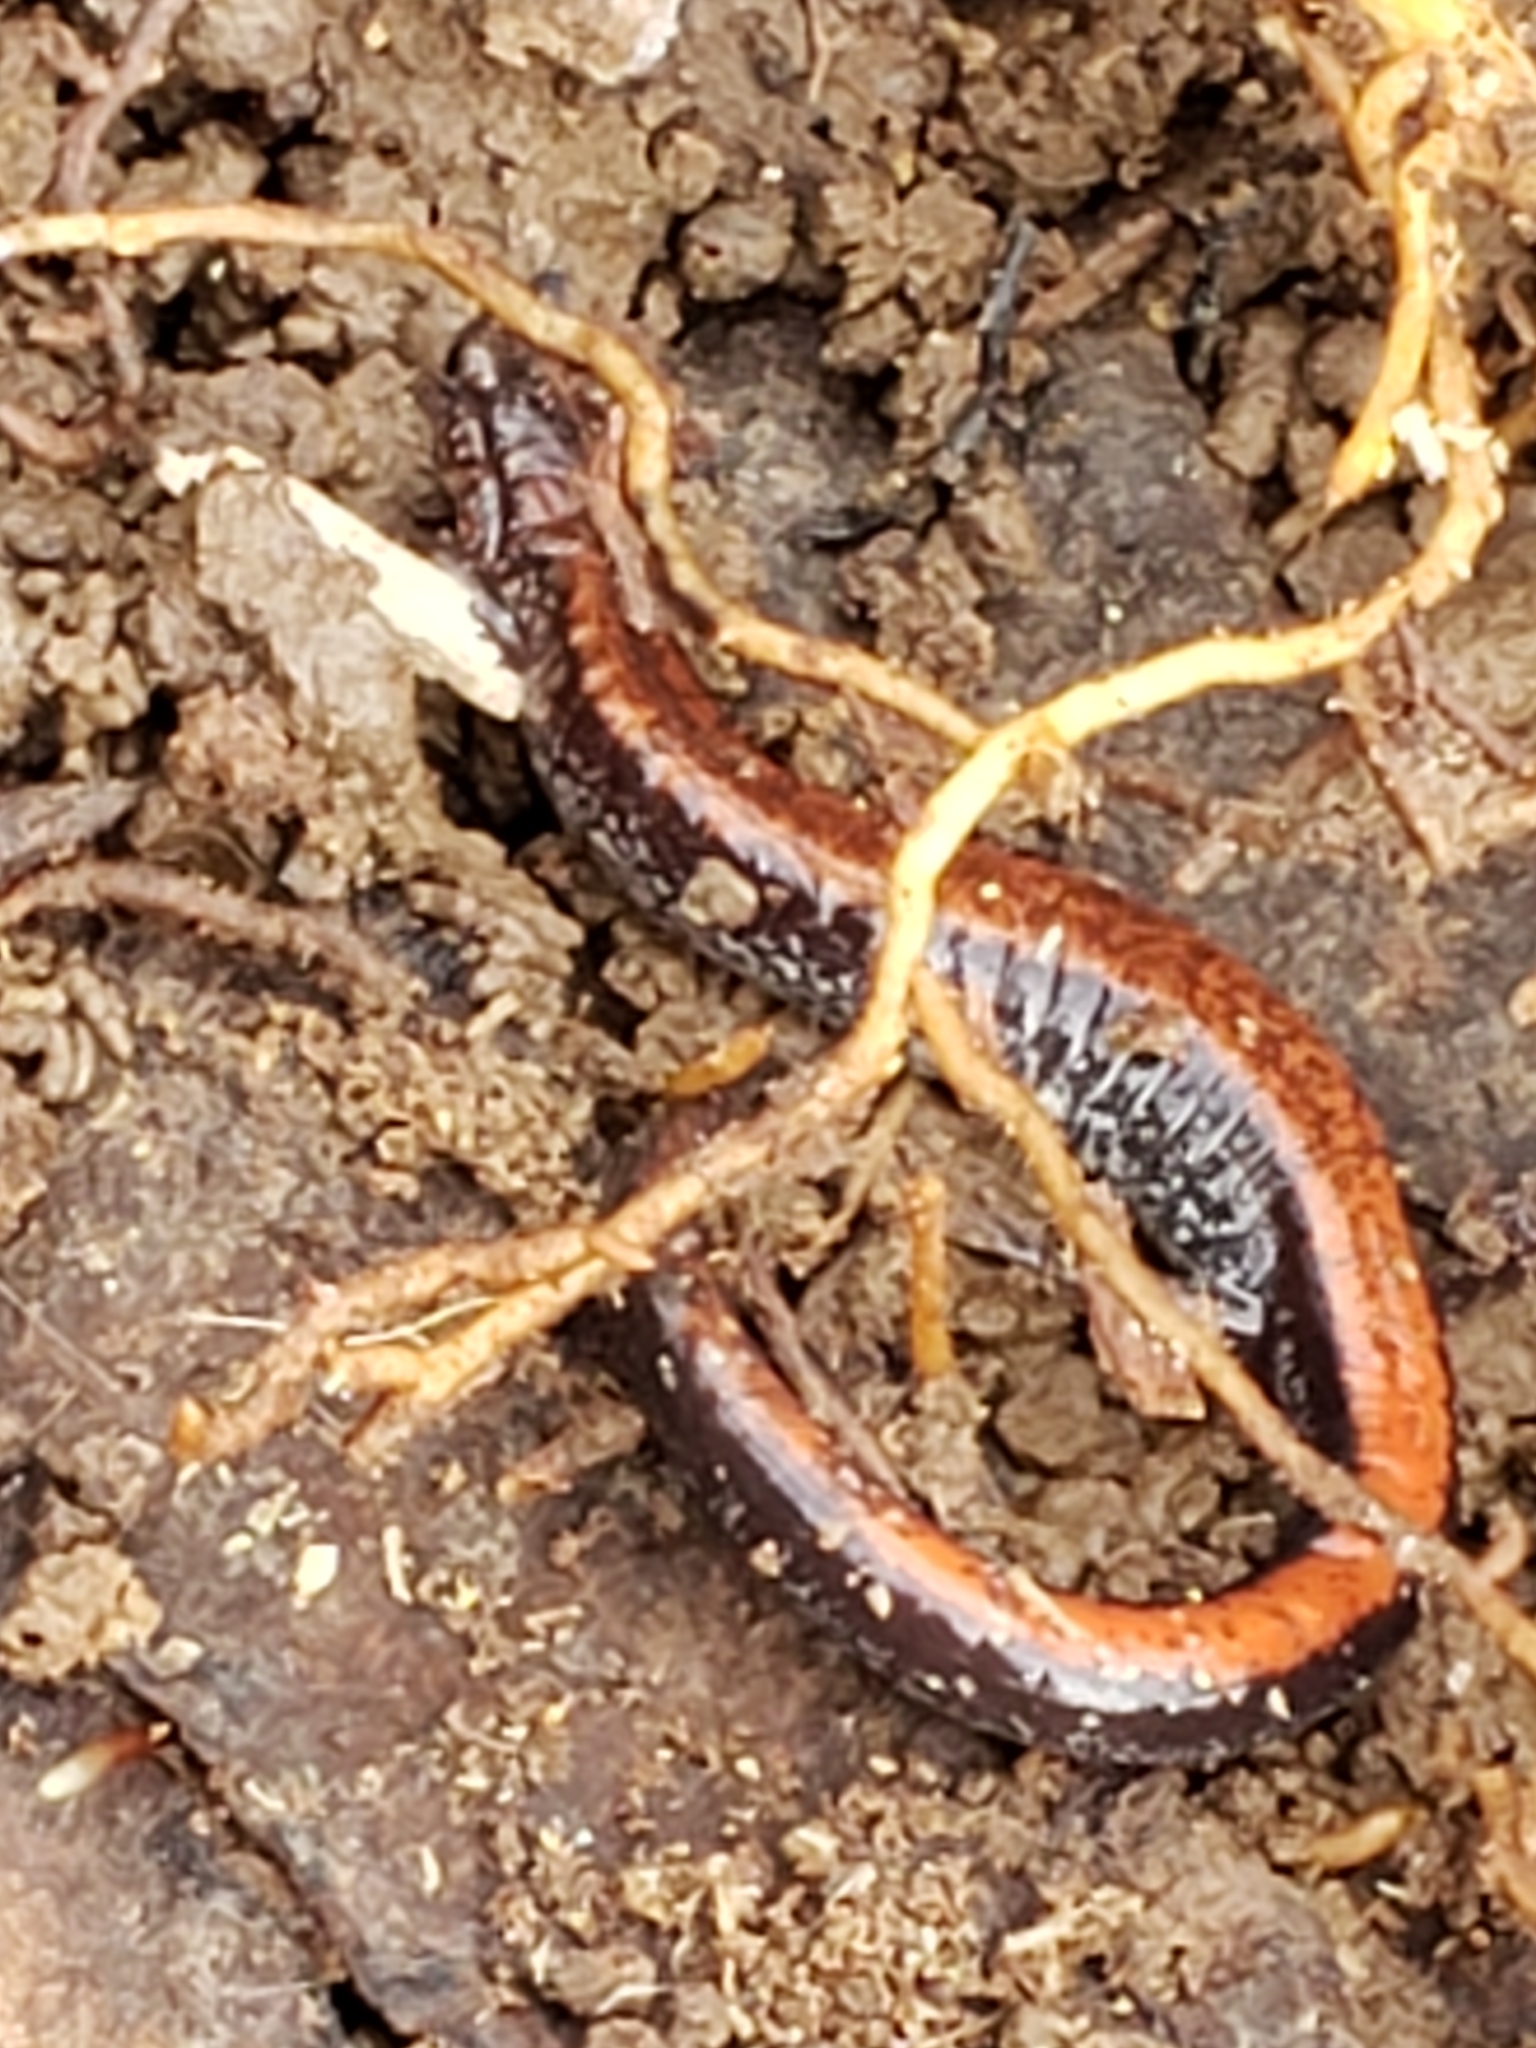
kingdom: Animalia
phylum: Chordata
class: Amphibia
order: Caudata
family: Plethodontidae
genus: Plethodon
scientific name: Plethodon cinereus
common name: Redback salamander
